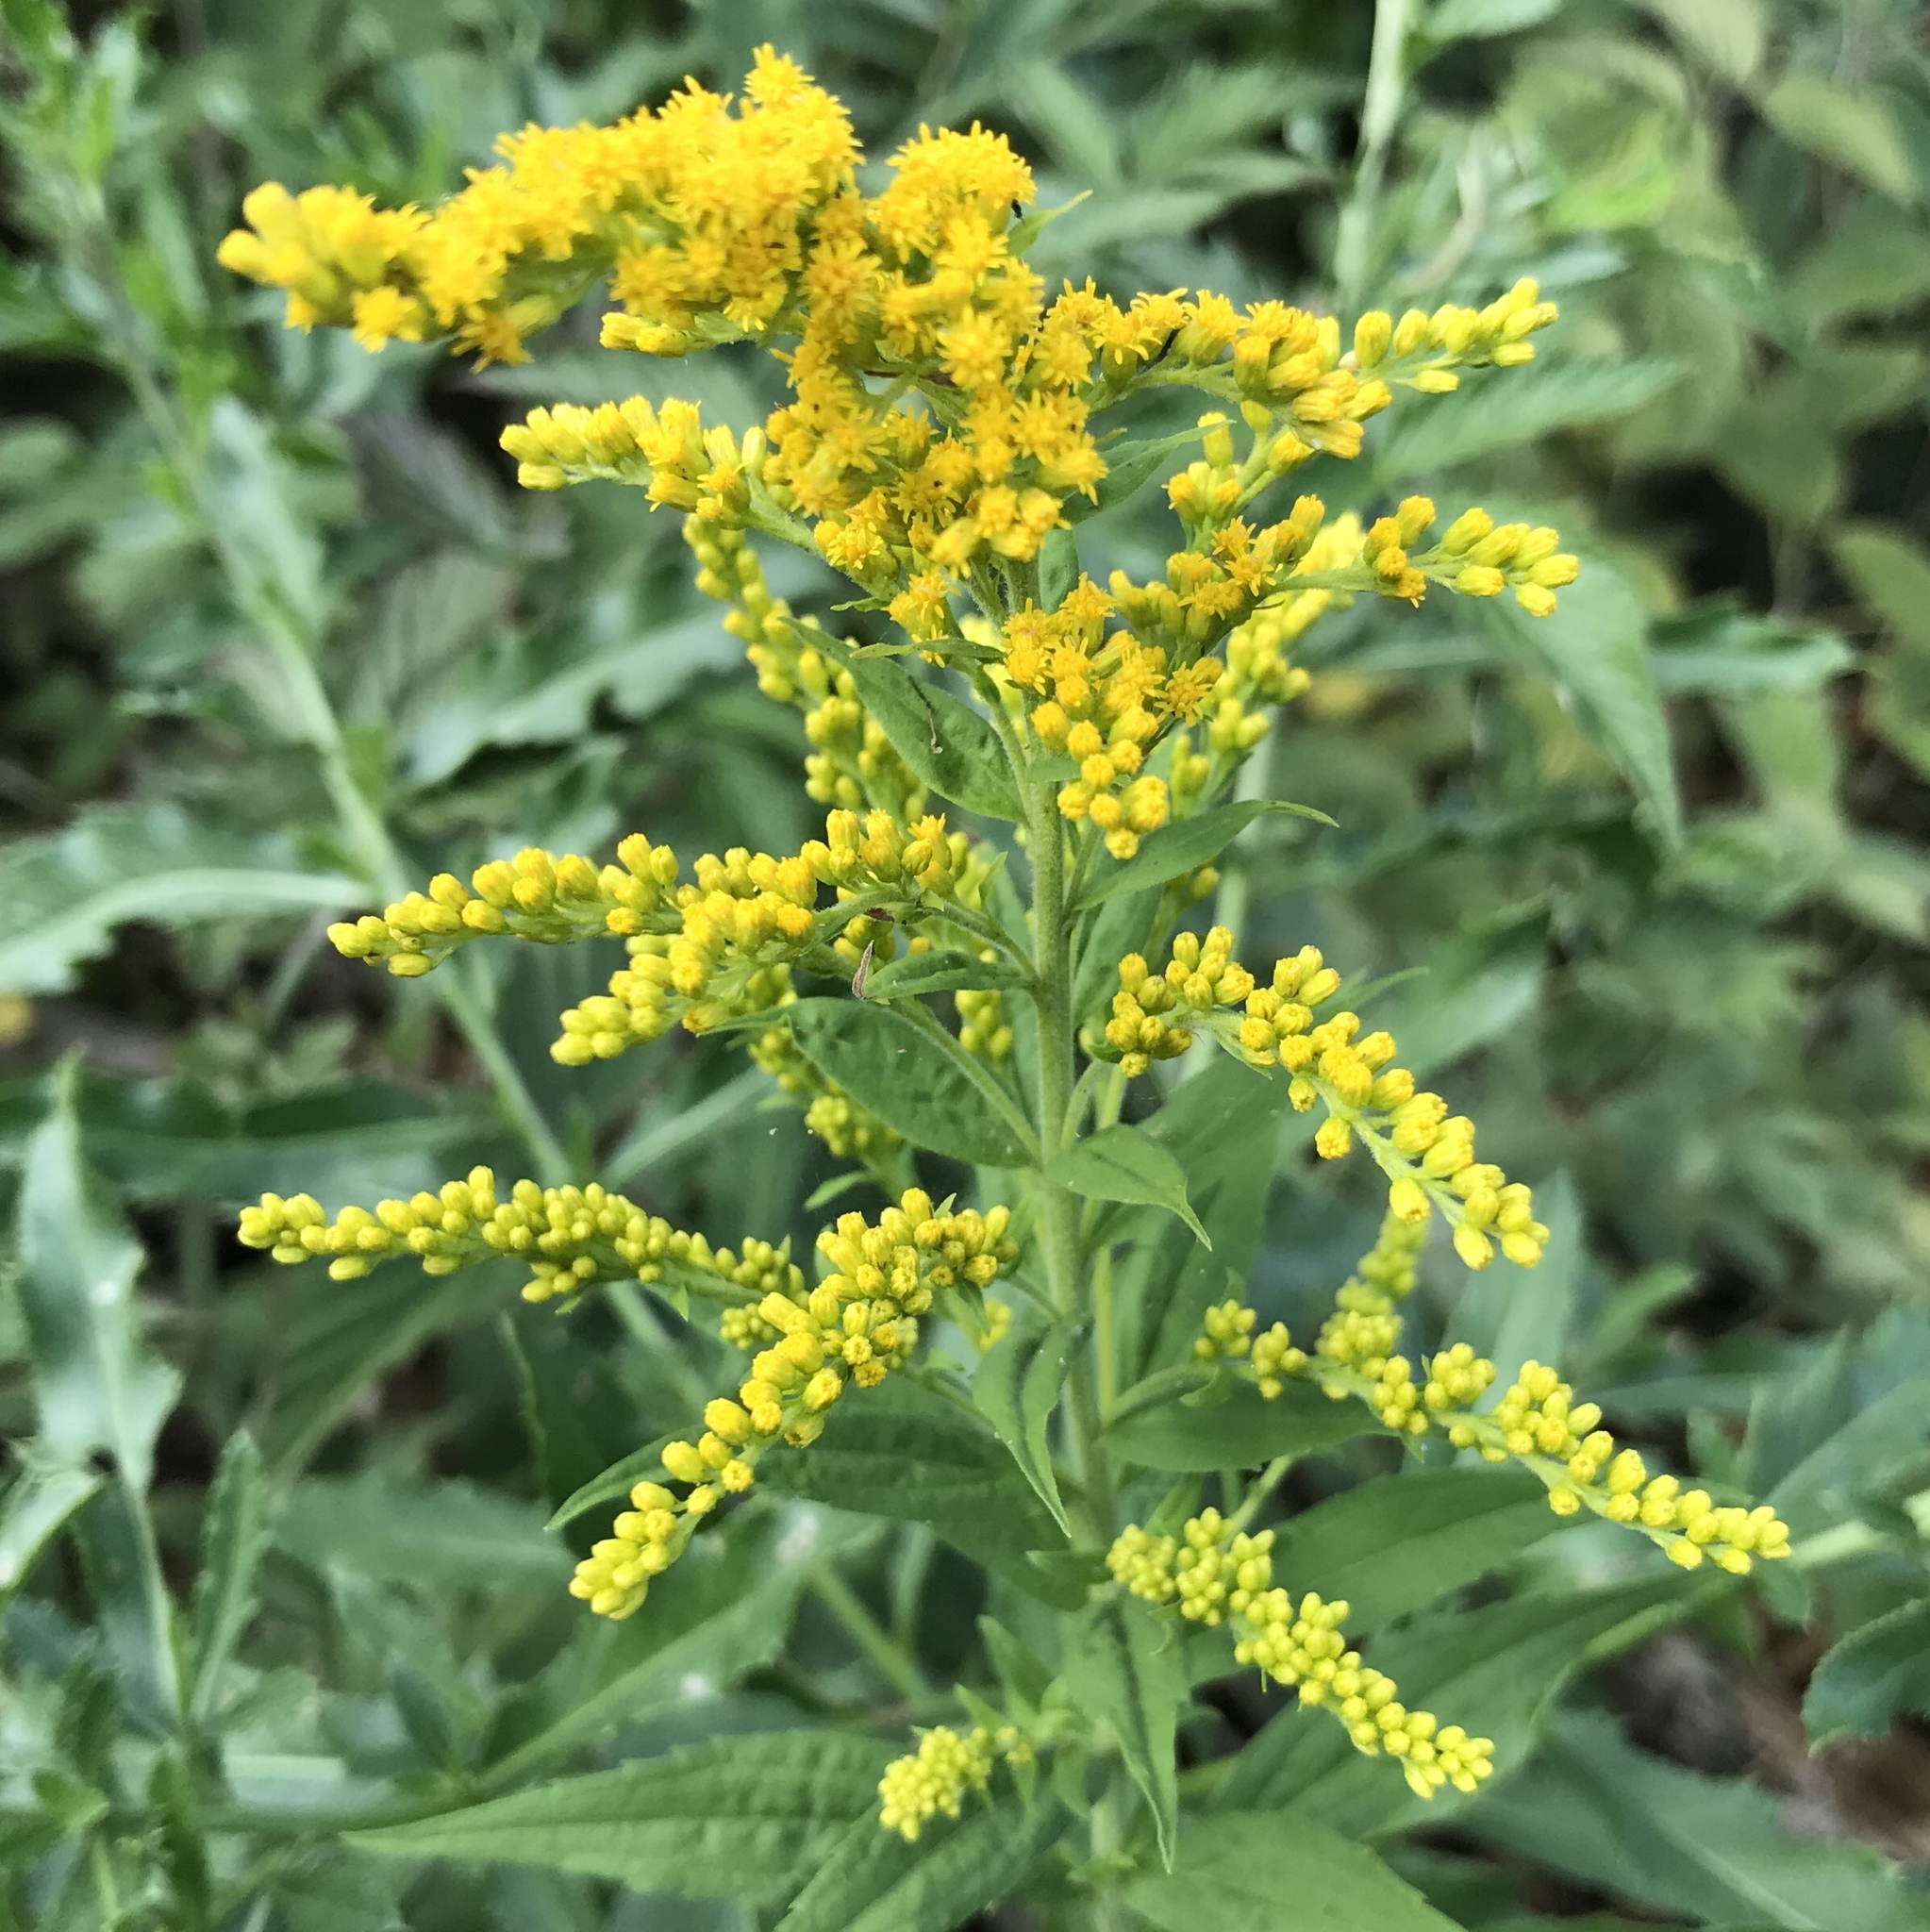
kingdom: Plantae
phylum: Tracheophyta
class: Magnoliopsida
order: Asterales
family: Asteraceae
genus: Solidago
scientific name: Solidago canadensis
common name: Canada goldenrod
